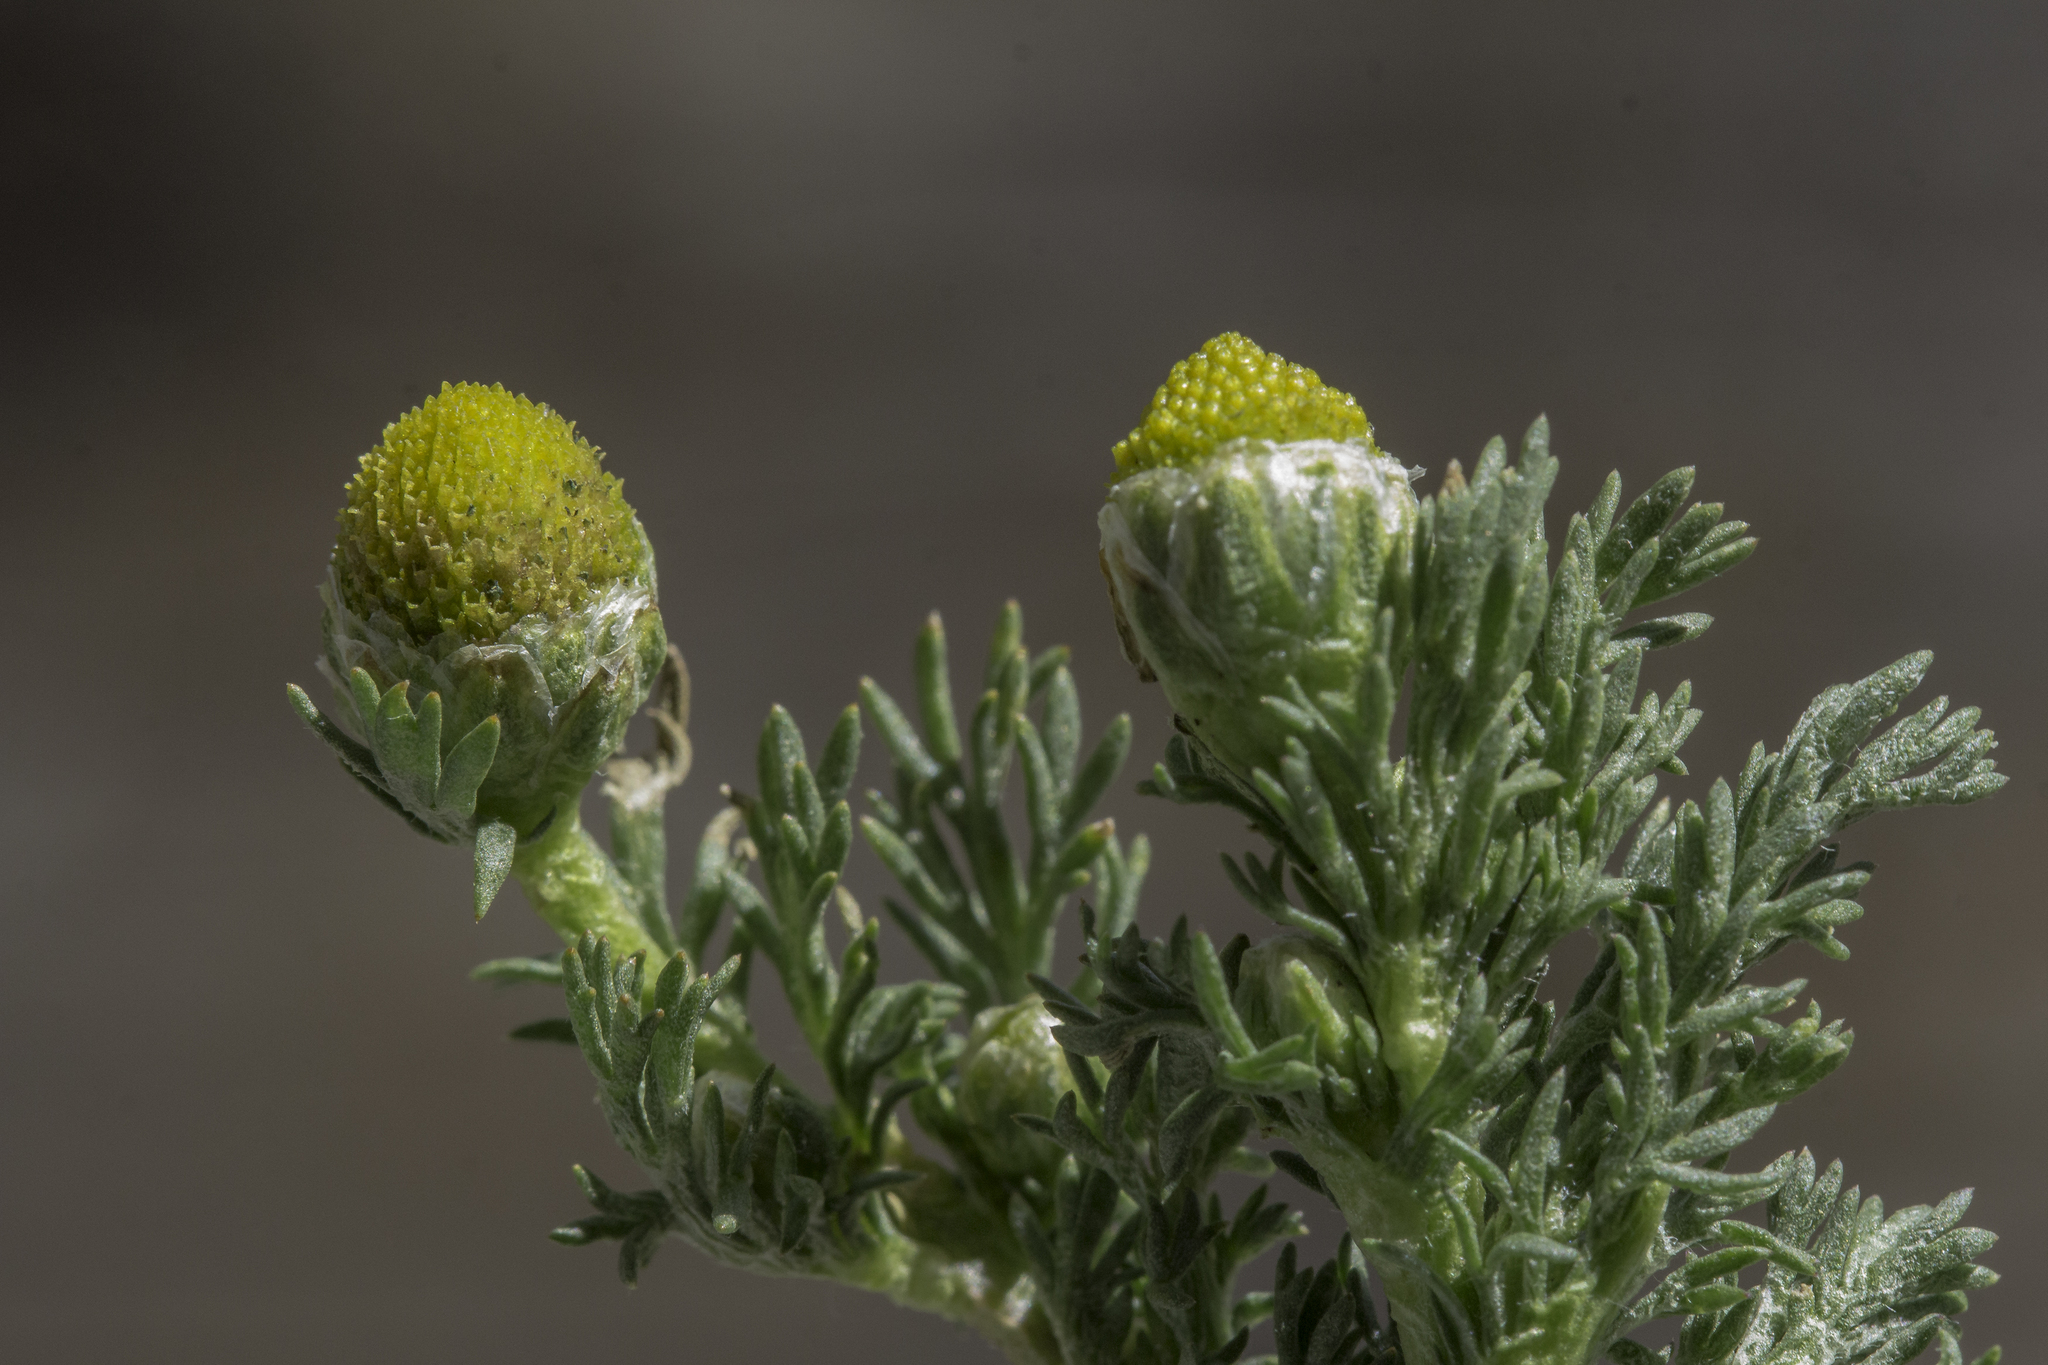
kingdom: Plantae
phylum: Tracheophyta
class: Magnoliopsida
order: Asterales
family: Asteraceae
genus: Matricaria
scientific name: Matricaria discoidea
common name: Disc mayweed
